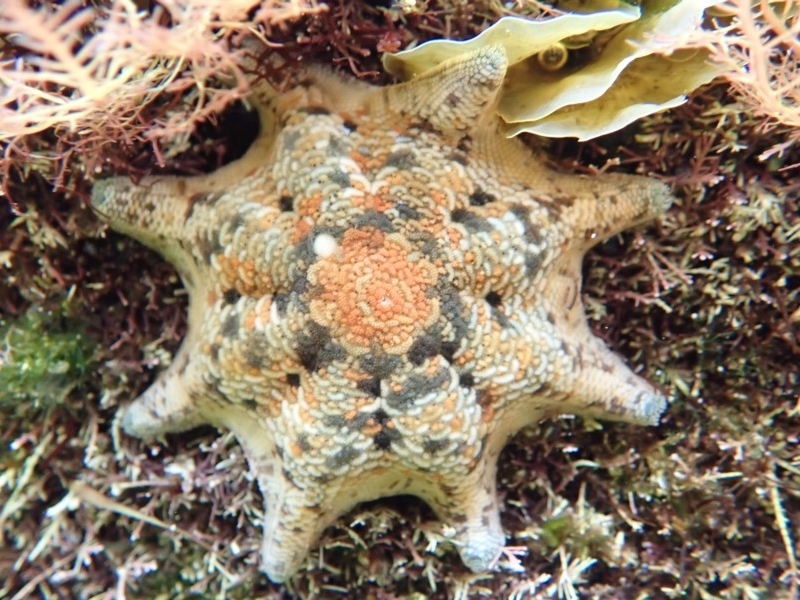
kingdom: Animalia
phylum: Echinodermata
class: Asteroidea
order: Valvatida
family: Asterinidae
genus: Meridiastra
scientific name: Meridiastra calcar
